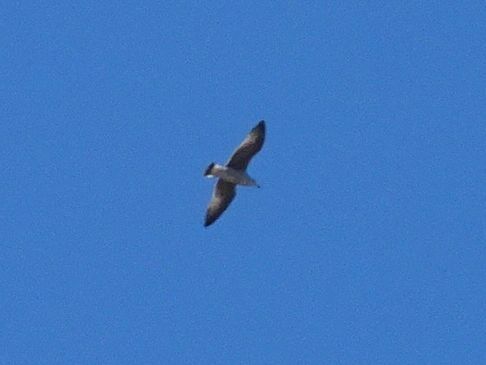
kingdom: Animalia
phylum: Chordata
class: Aves
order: Charadriiformes
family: Laridae
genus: Larus
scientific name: Larus michahellis
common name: Yellow-legged gull
